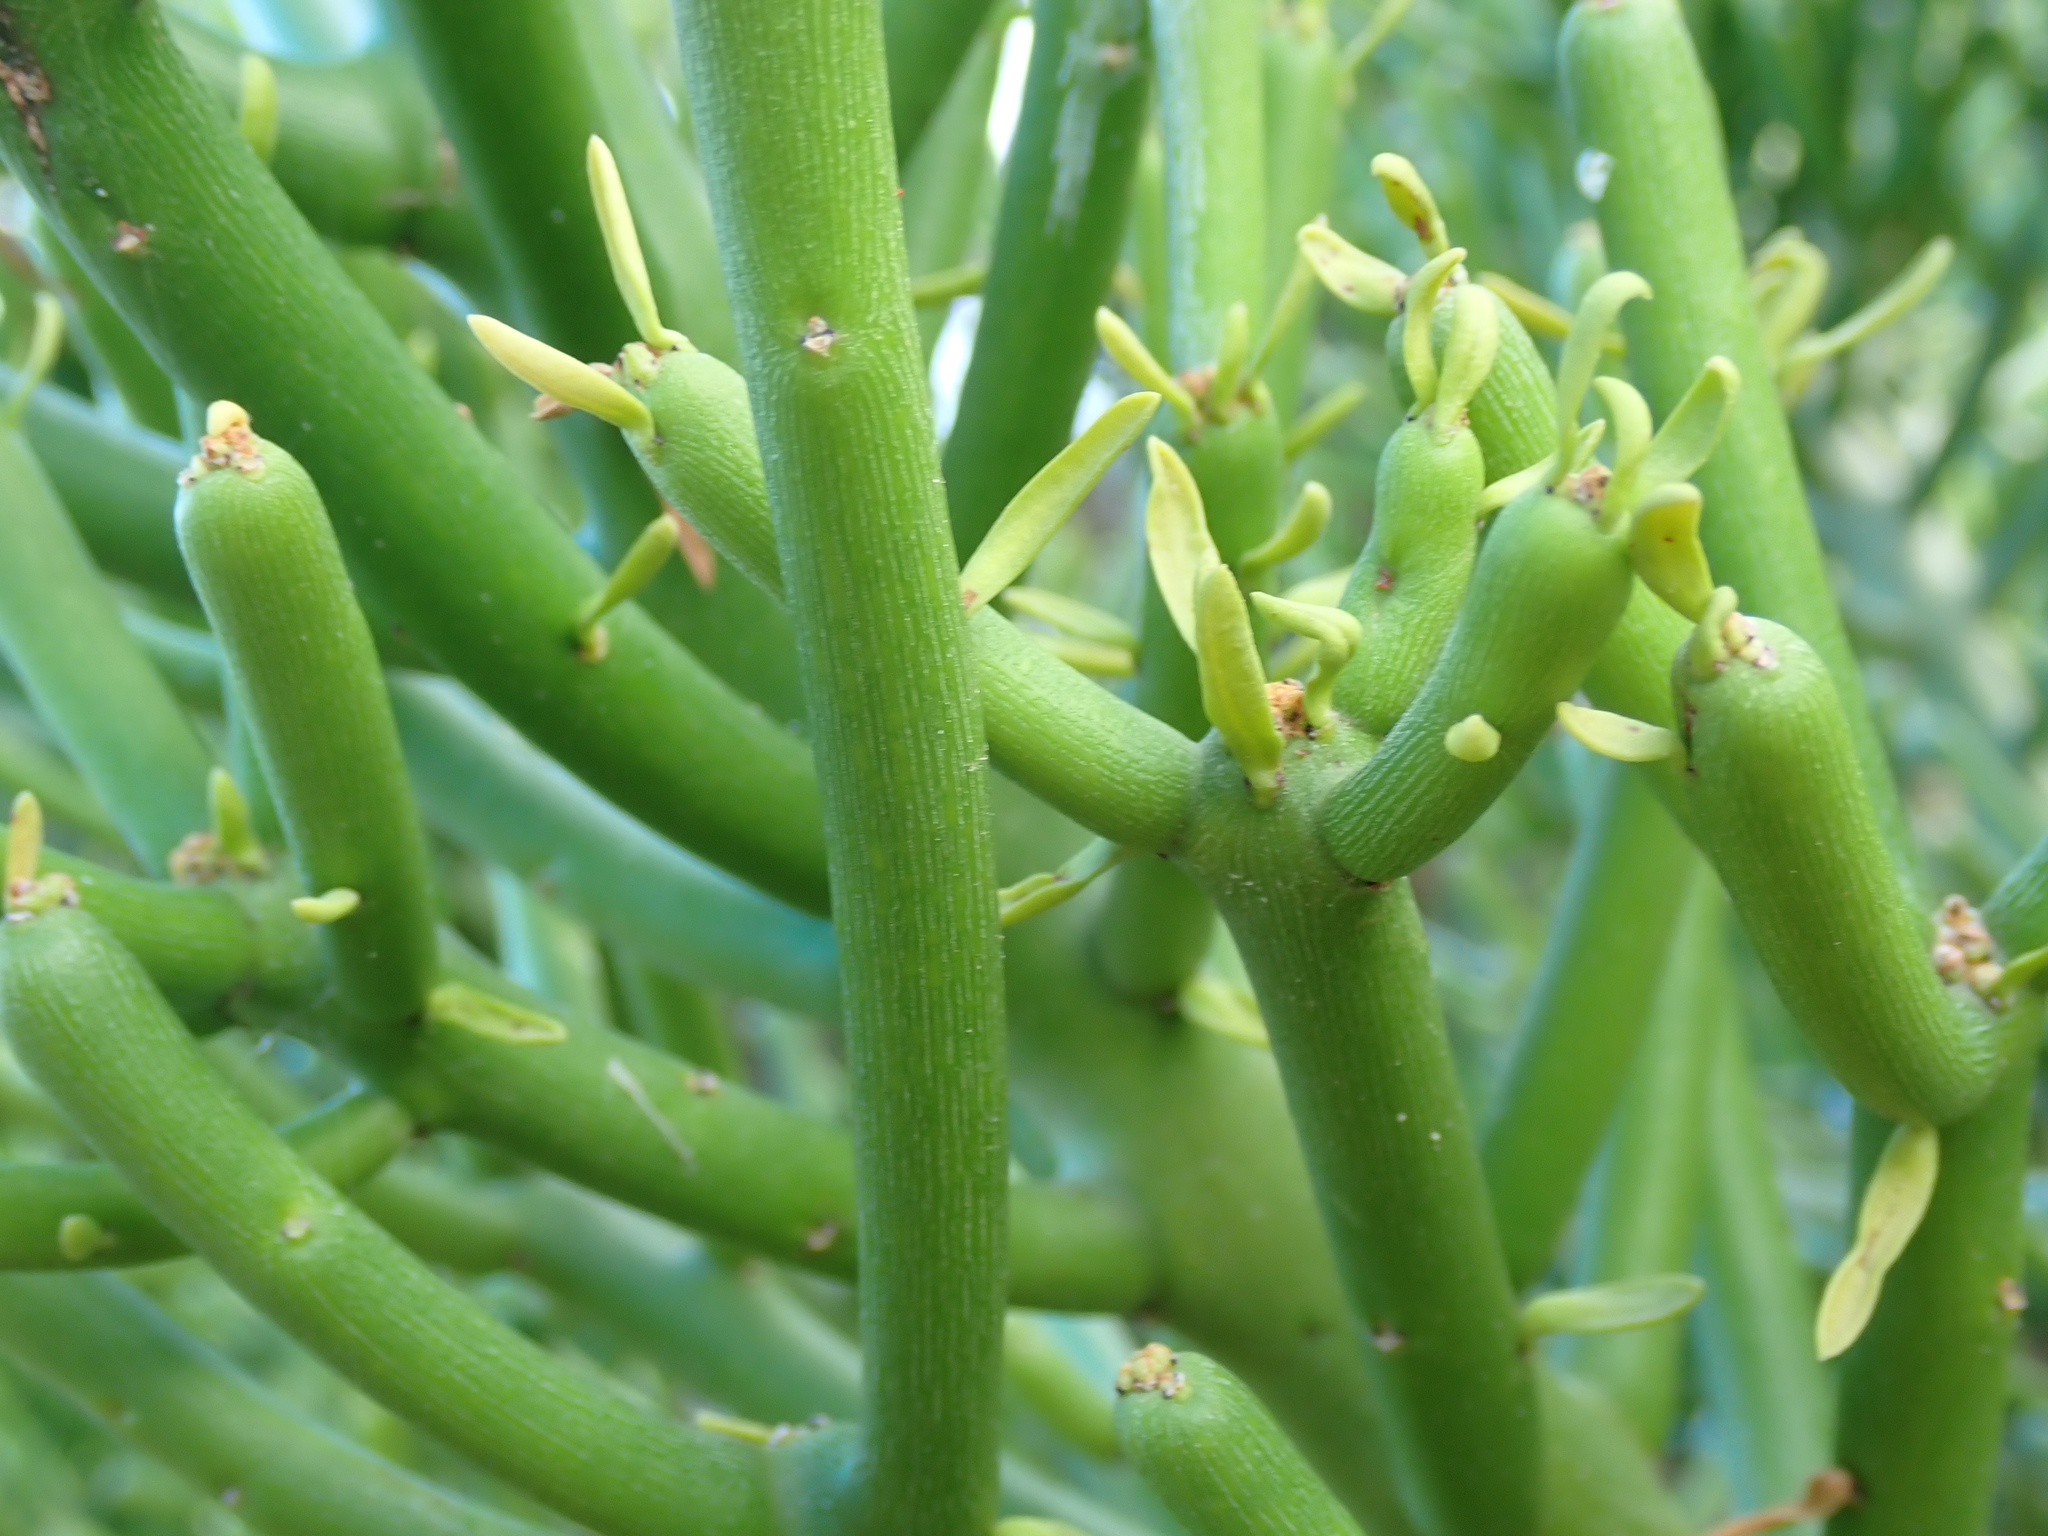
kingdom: Plantae
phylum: Tracheophyta
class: Magnoliopsida
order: Malpighiales
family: Euphorbiaceae
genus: Euphorbia
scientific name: Euphorbia tirucalli
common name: Indiantree spurge
